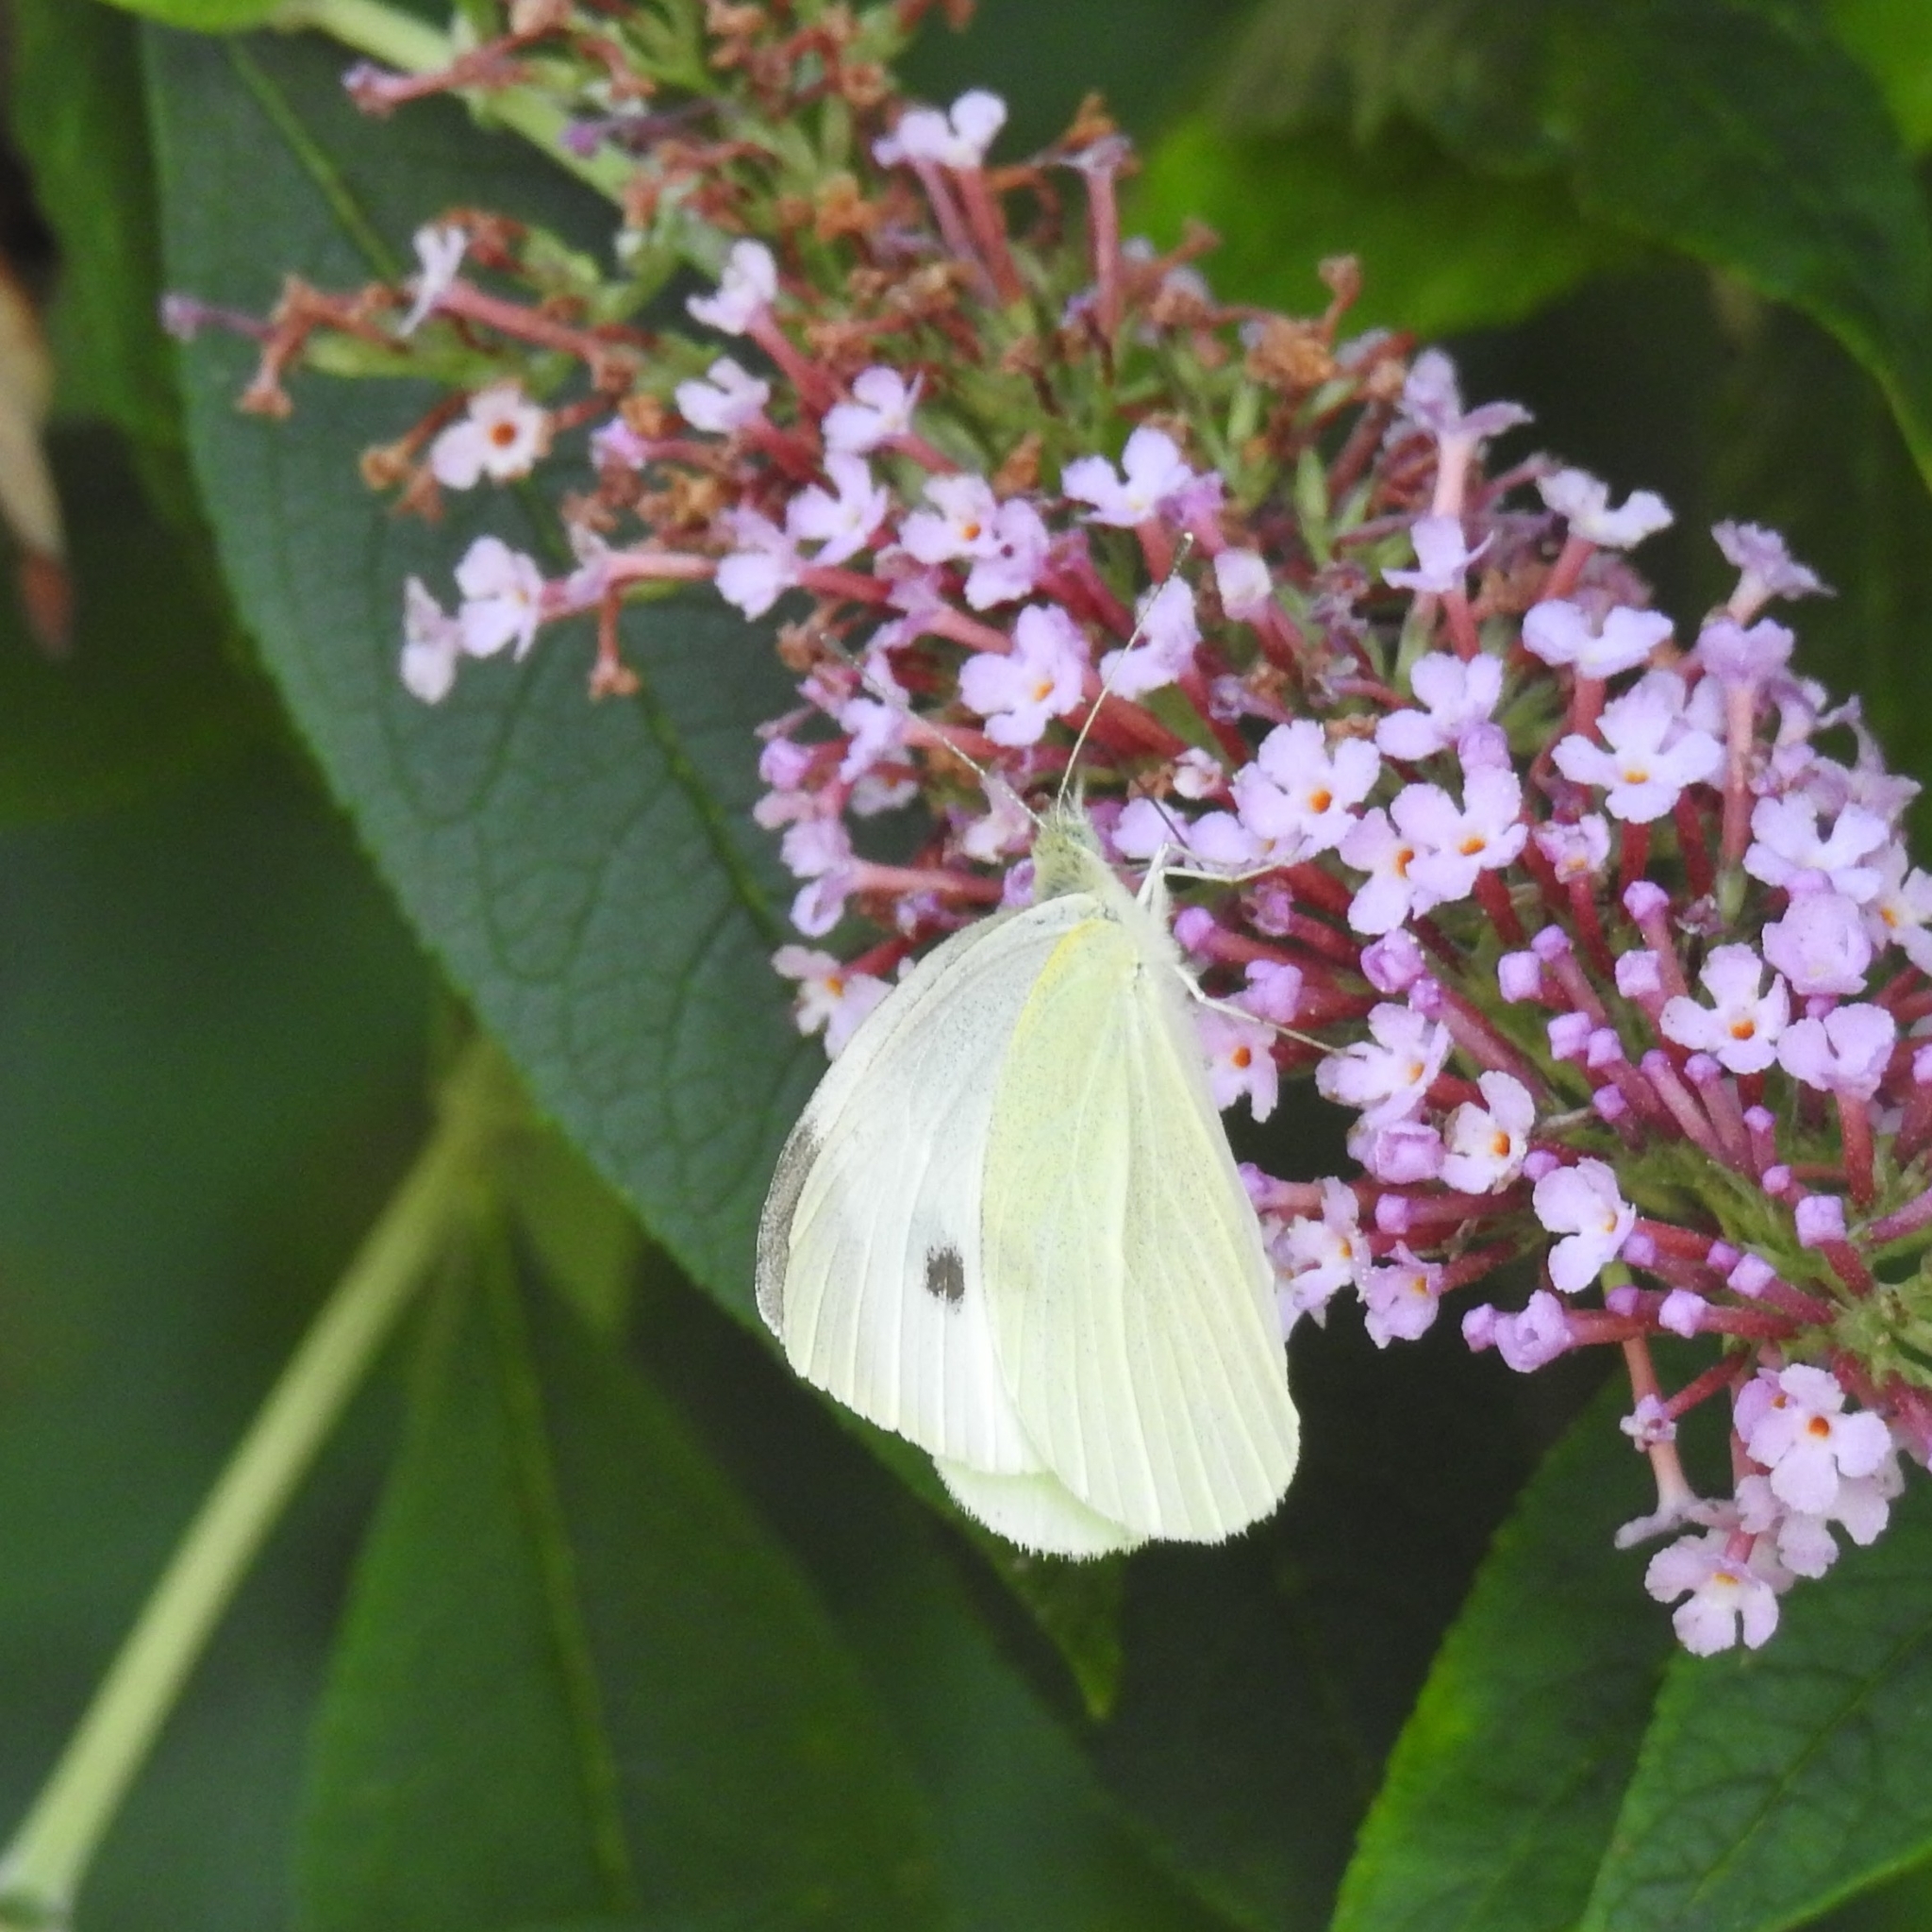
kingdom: Animalia
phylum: Arthropoda
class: Insecta
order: Lepidoptera
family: Pieridae
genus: Pieris
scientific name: Pieris rapae
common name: Small white
